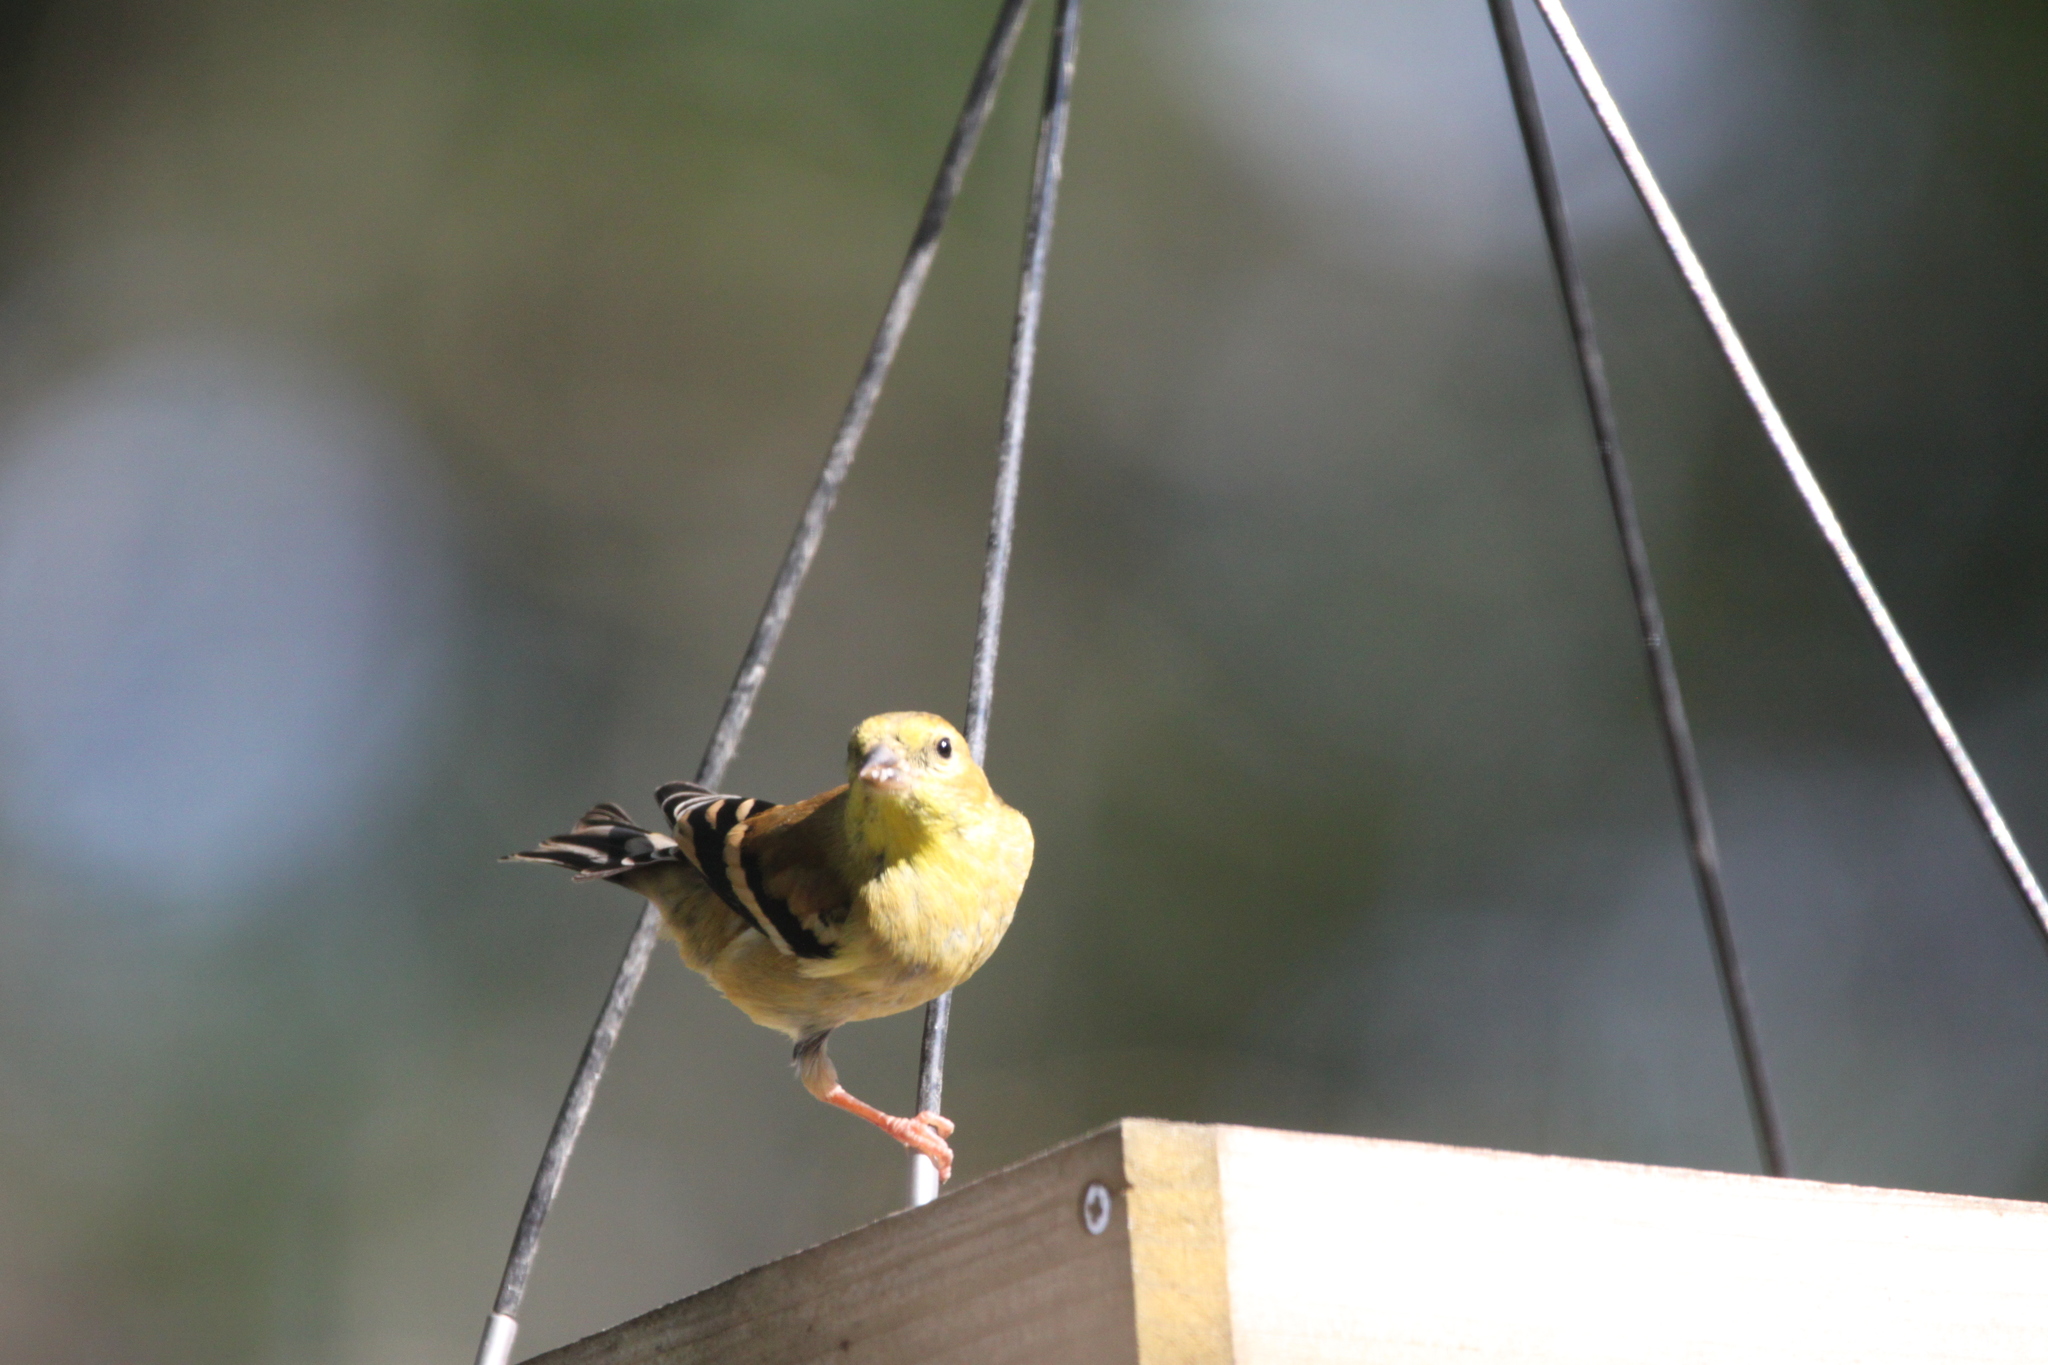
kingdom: Animalia
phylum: Chordata
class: Aves
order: Passeriformes
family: Fringillidae
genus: Spinus
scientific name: Spinus tristis
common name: American goldfinch
